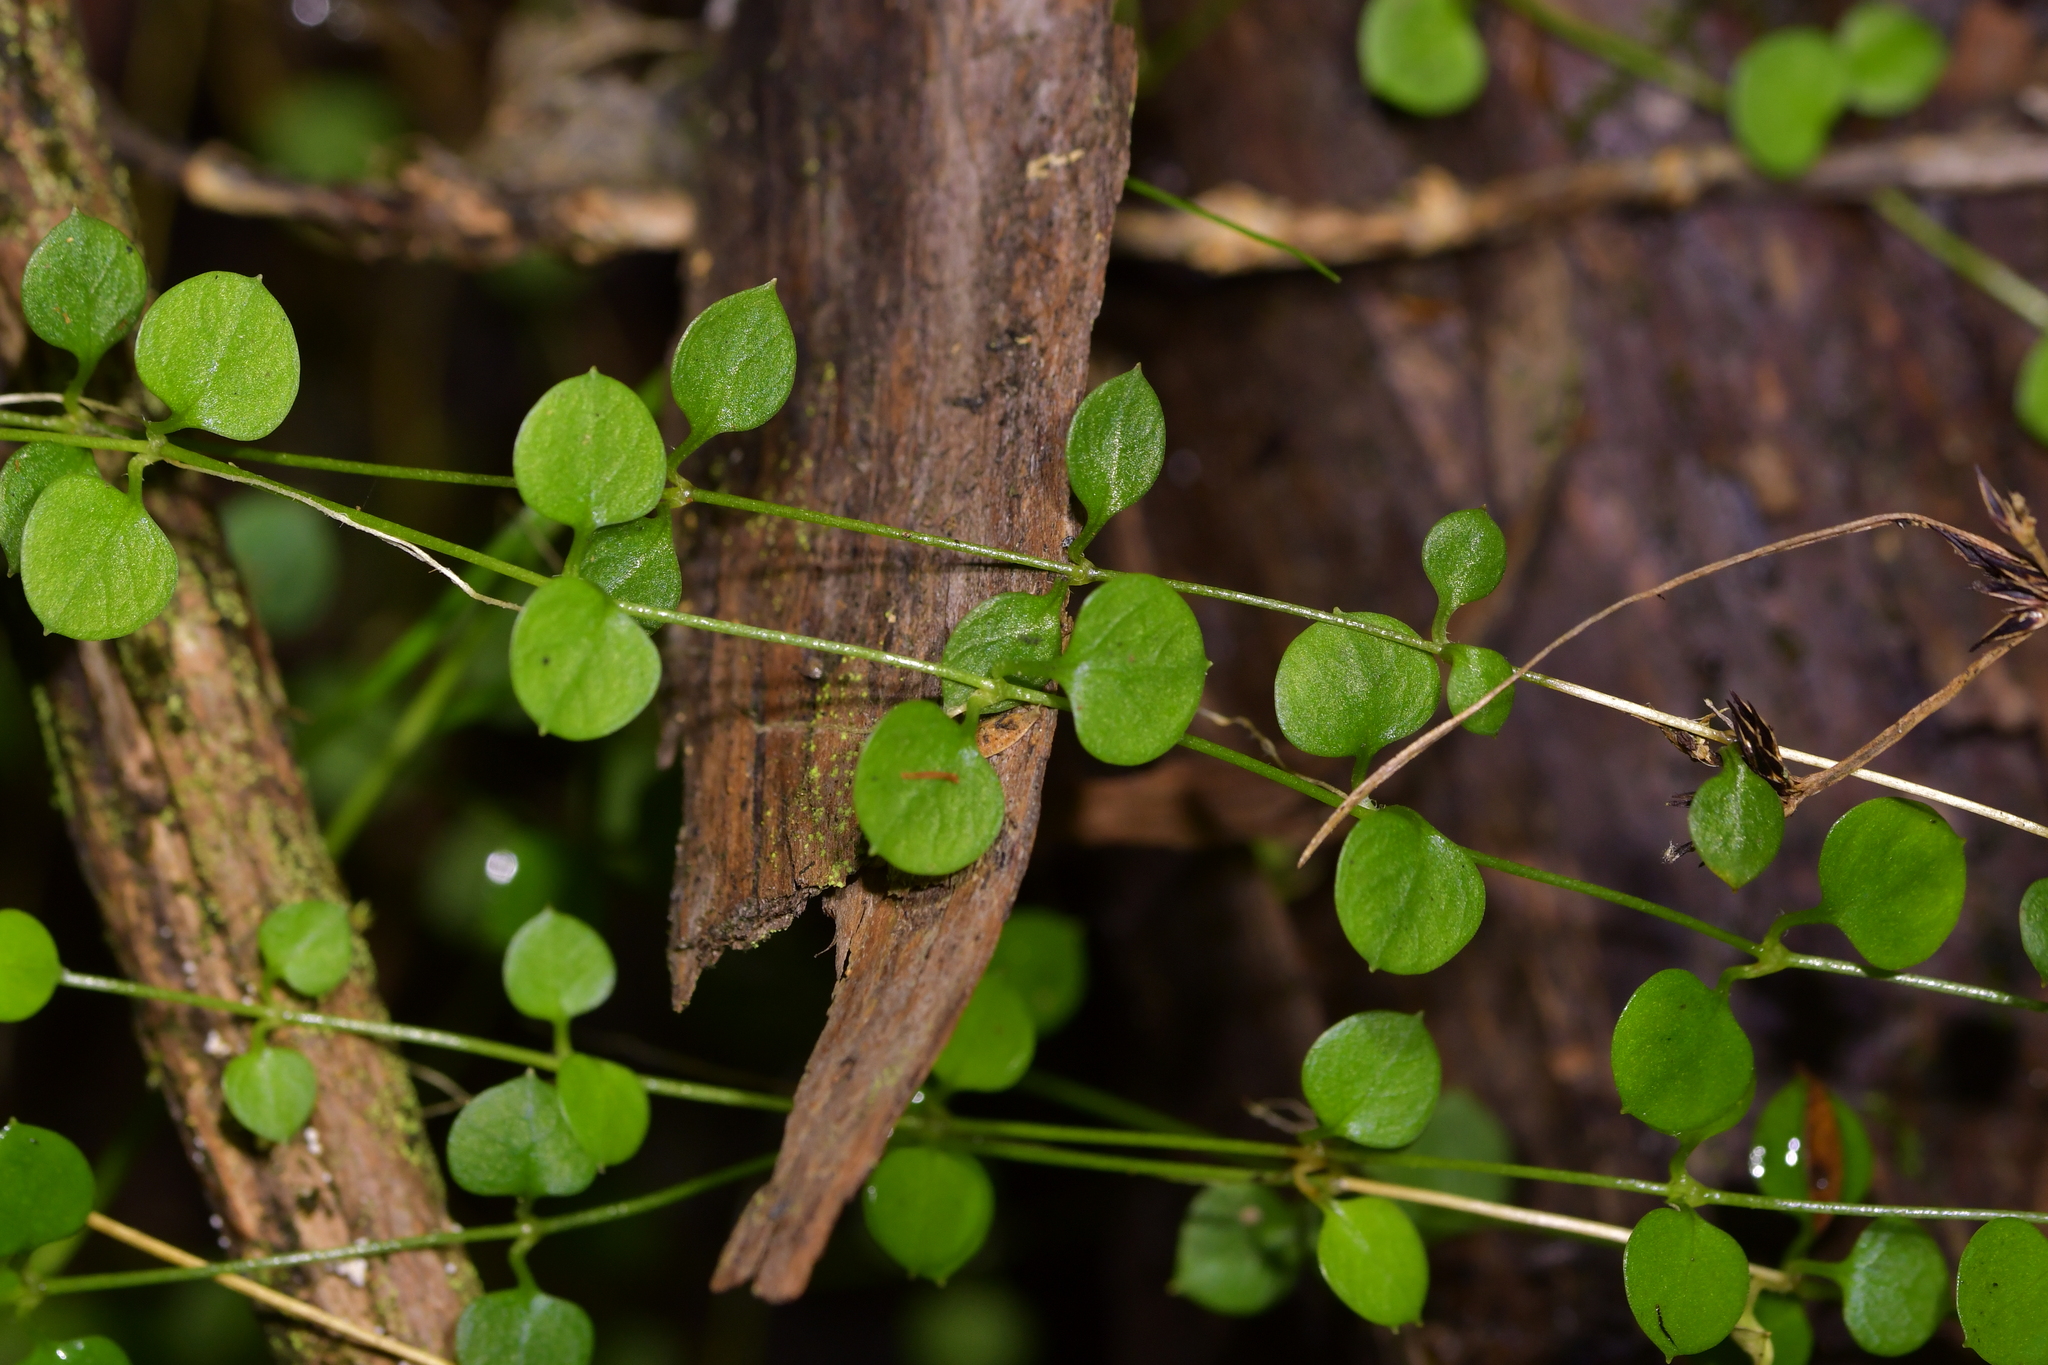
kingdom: Plantae
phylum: Tracheophyta
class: Magnoliopsida
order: Caryophyllales
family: Caryophyllaceae
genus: Stellaria
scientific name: Stellaria parviflora
